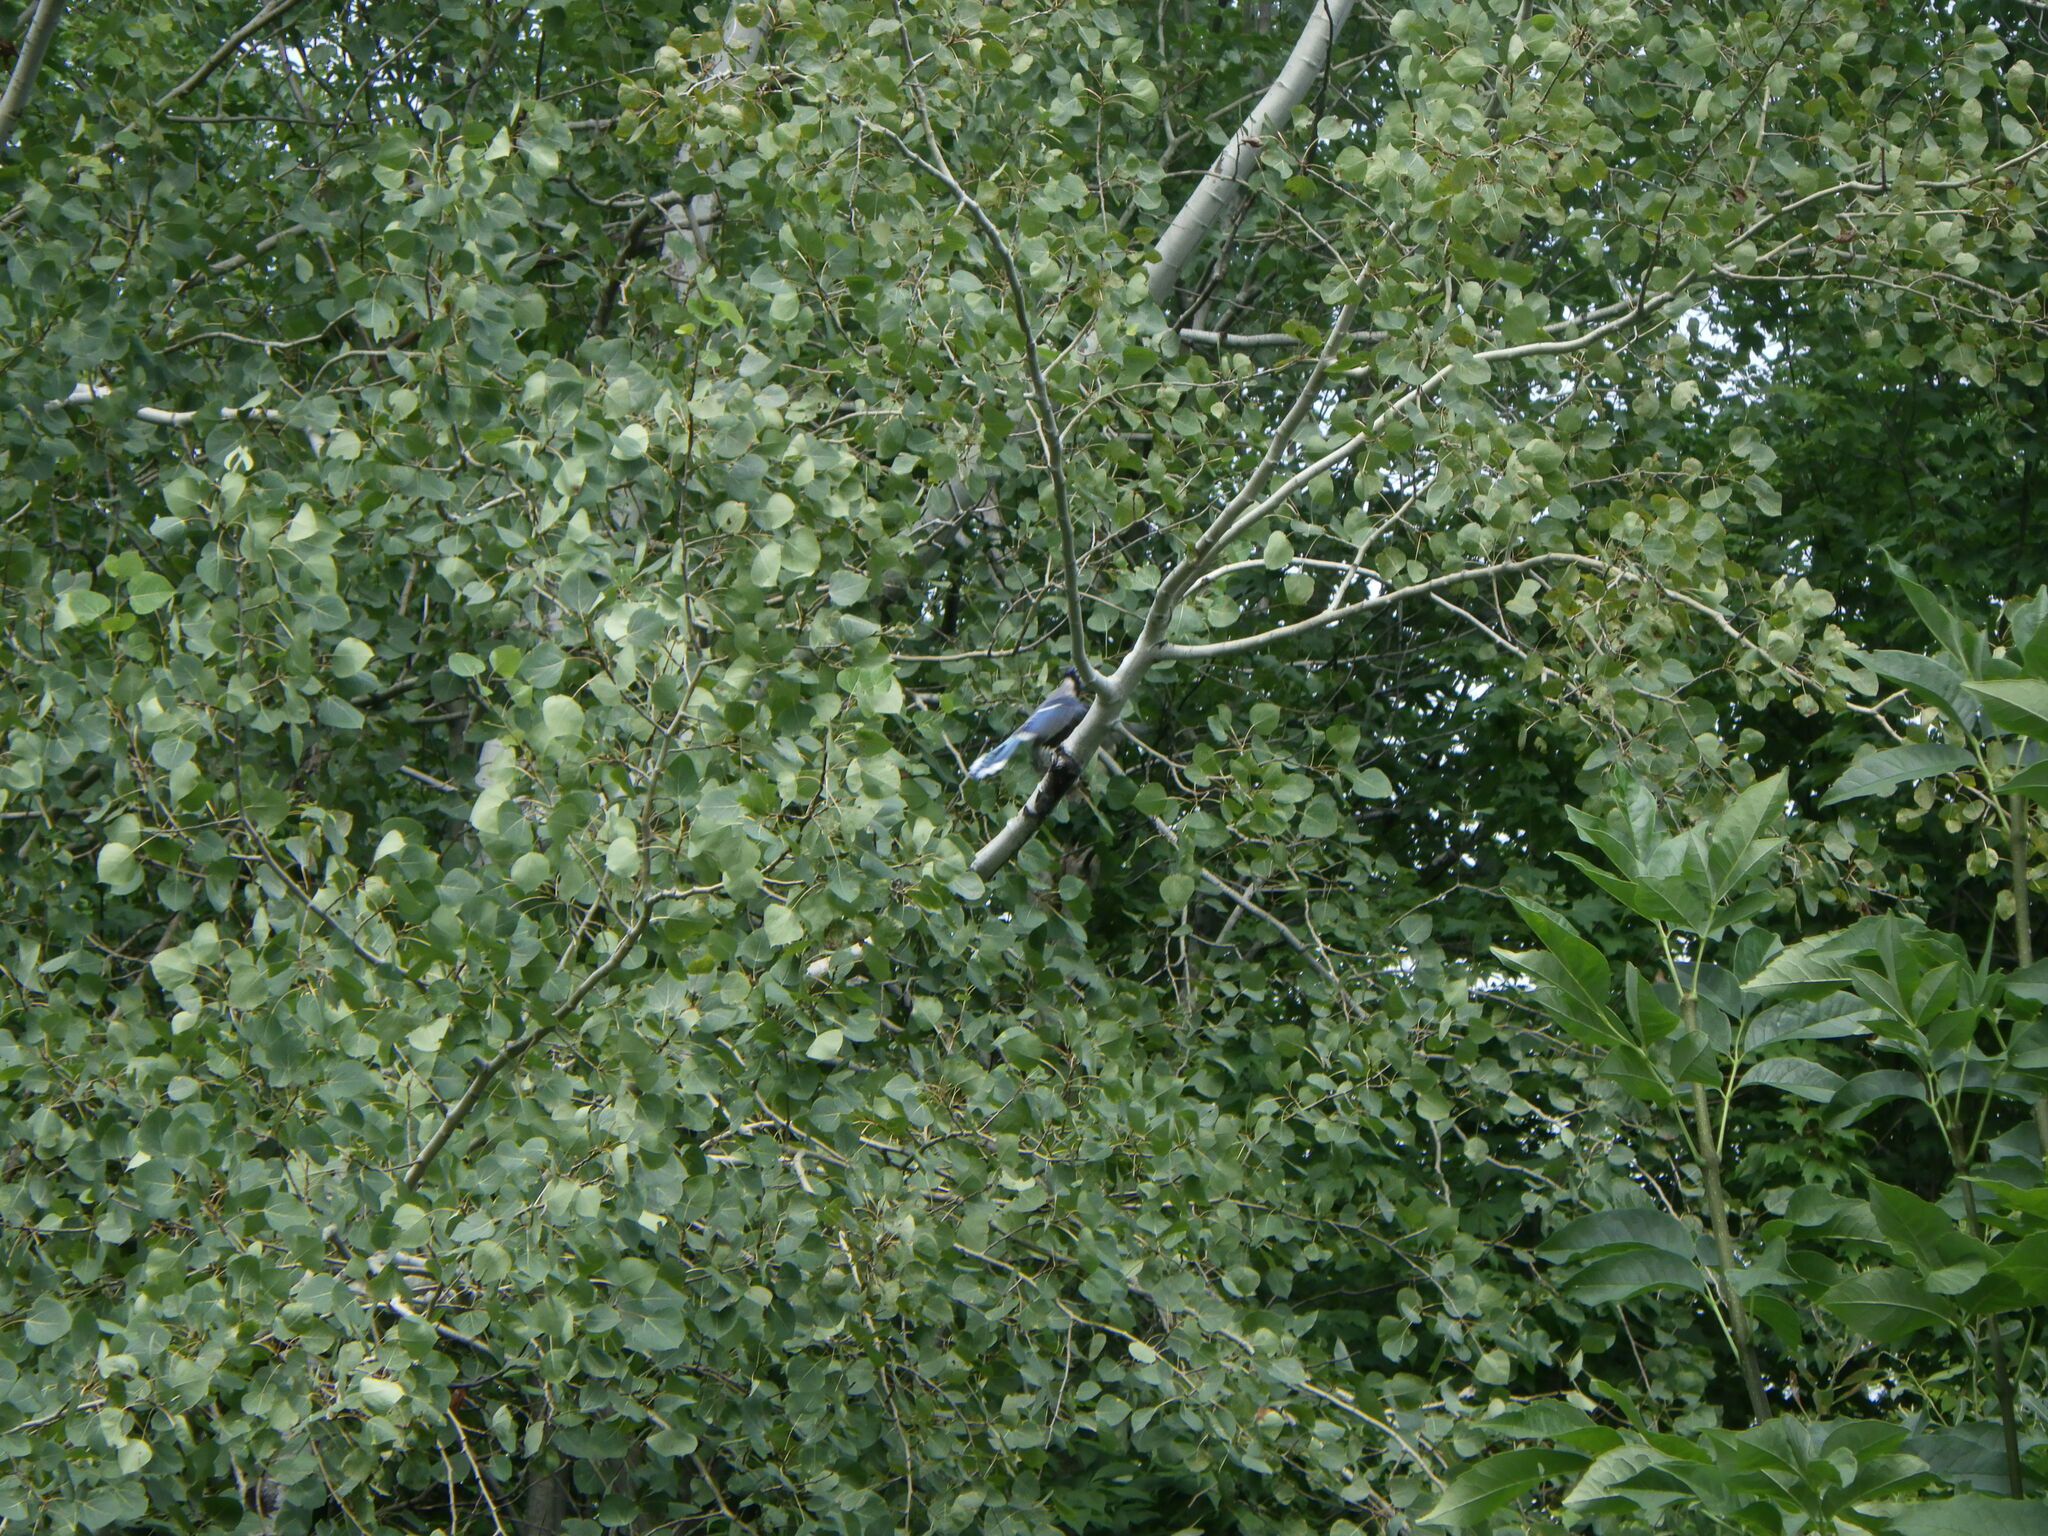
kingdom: Animalia
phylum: Chordata
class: Aves
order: Passeriformes
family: Corvidae
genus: Cyanocitta
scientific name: Cyanocitta cristata
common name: Blue jay
